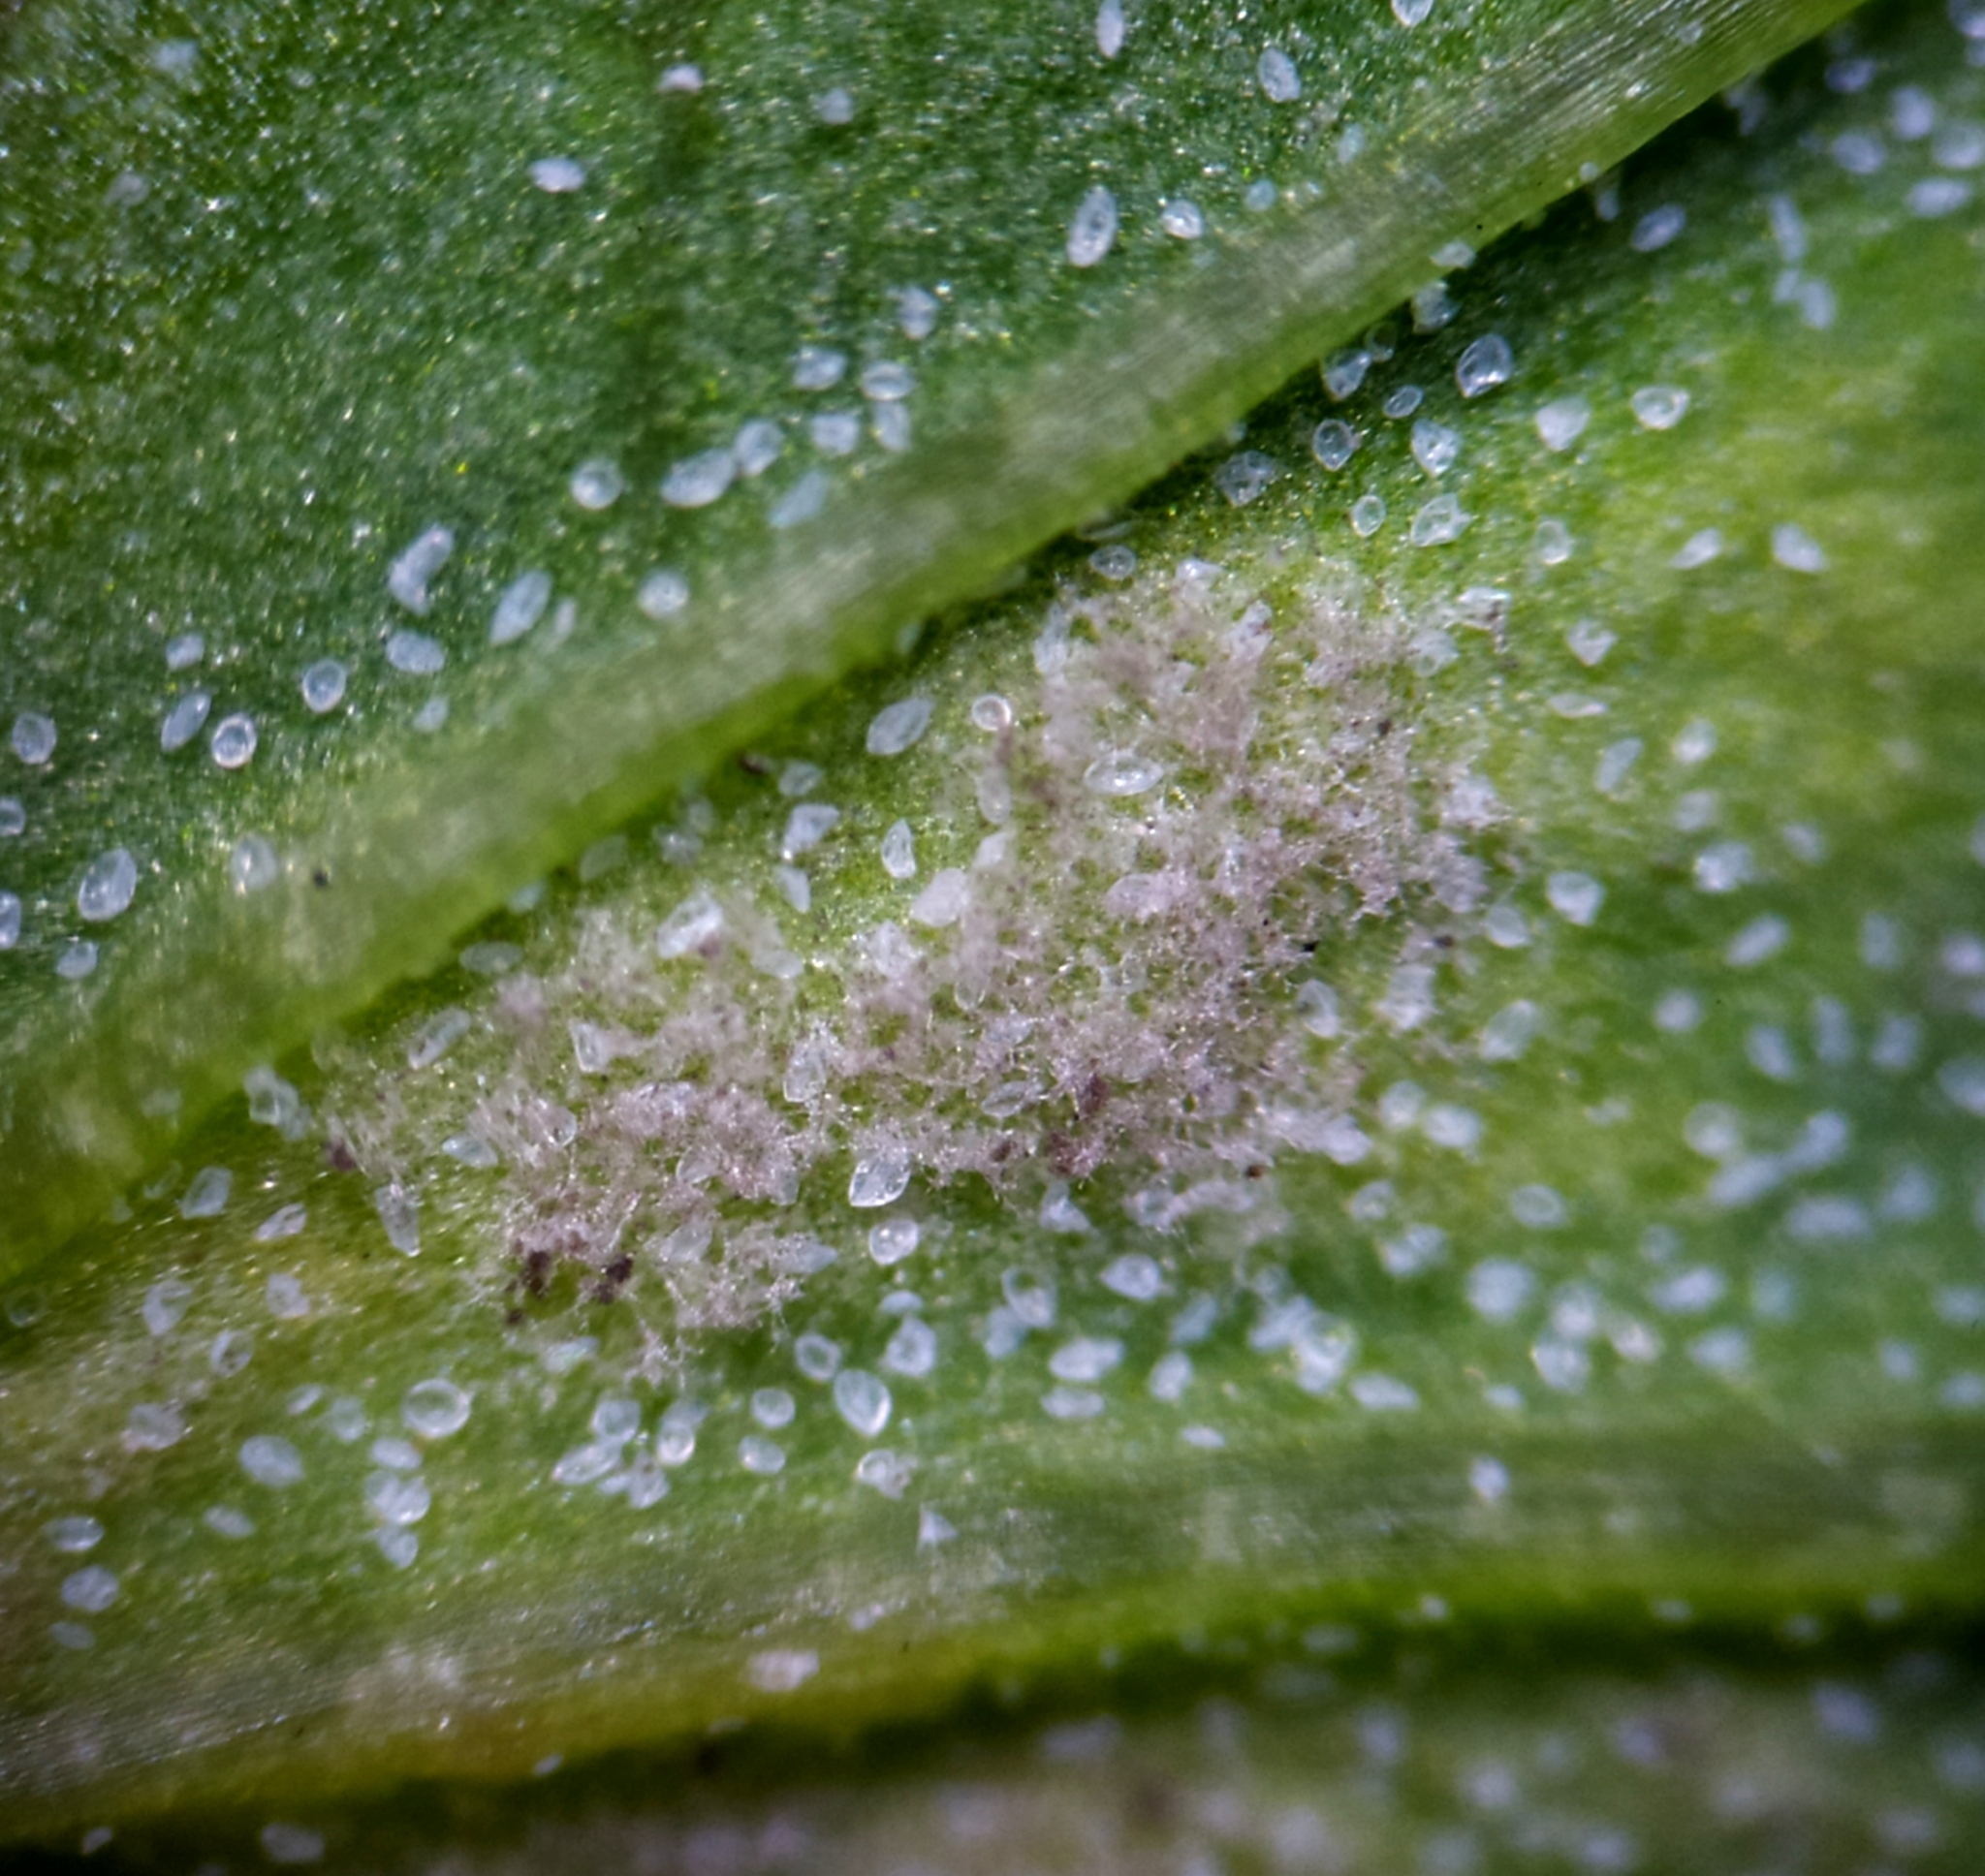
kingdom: Chromista
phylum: Oomycota
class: Peronosporea
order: Peronosporales
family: Peronosporaceae
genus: Peronospora
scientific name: Peronospora farinosa
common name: Beet downy mildew
